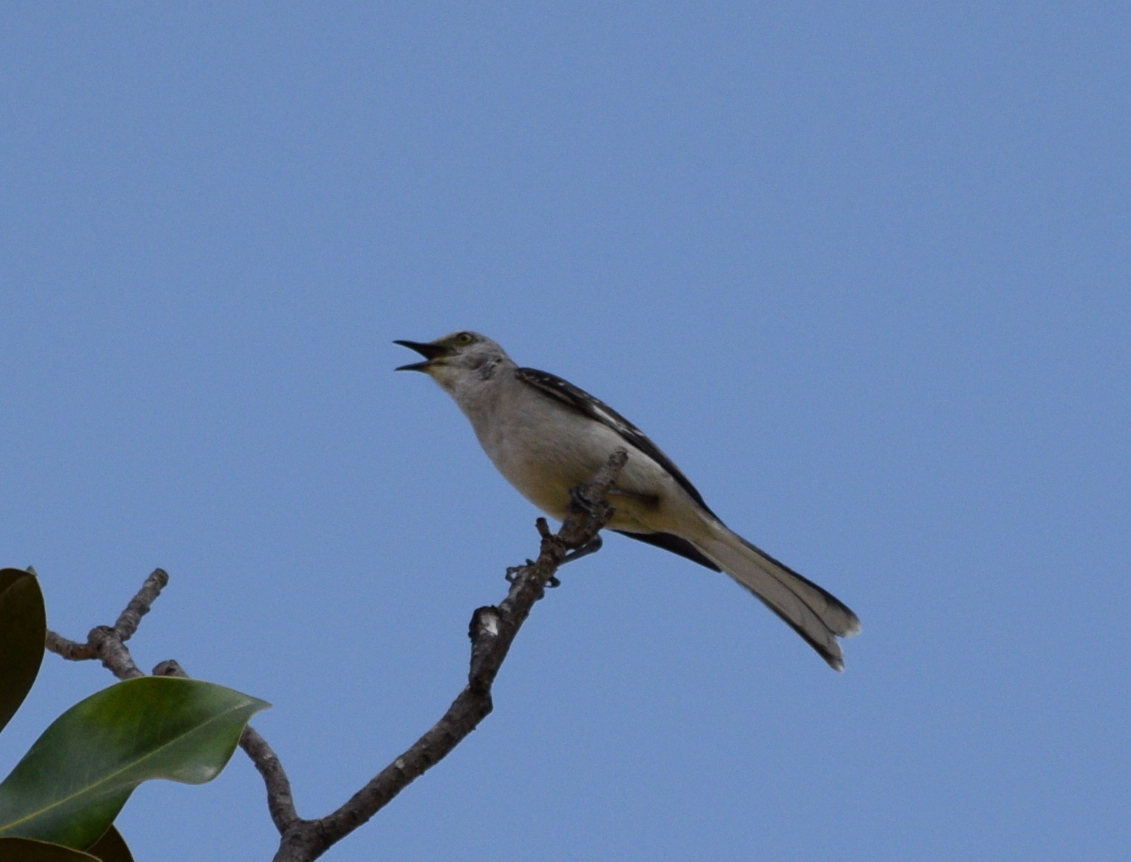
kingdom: Animalia
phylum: Chordata
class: Aves
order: Passeriformes
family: Mimidae
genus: Mimus
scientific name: Mimus polyglottos
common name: Northern mockingbird
